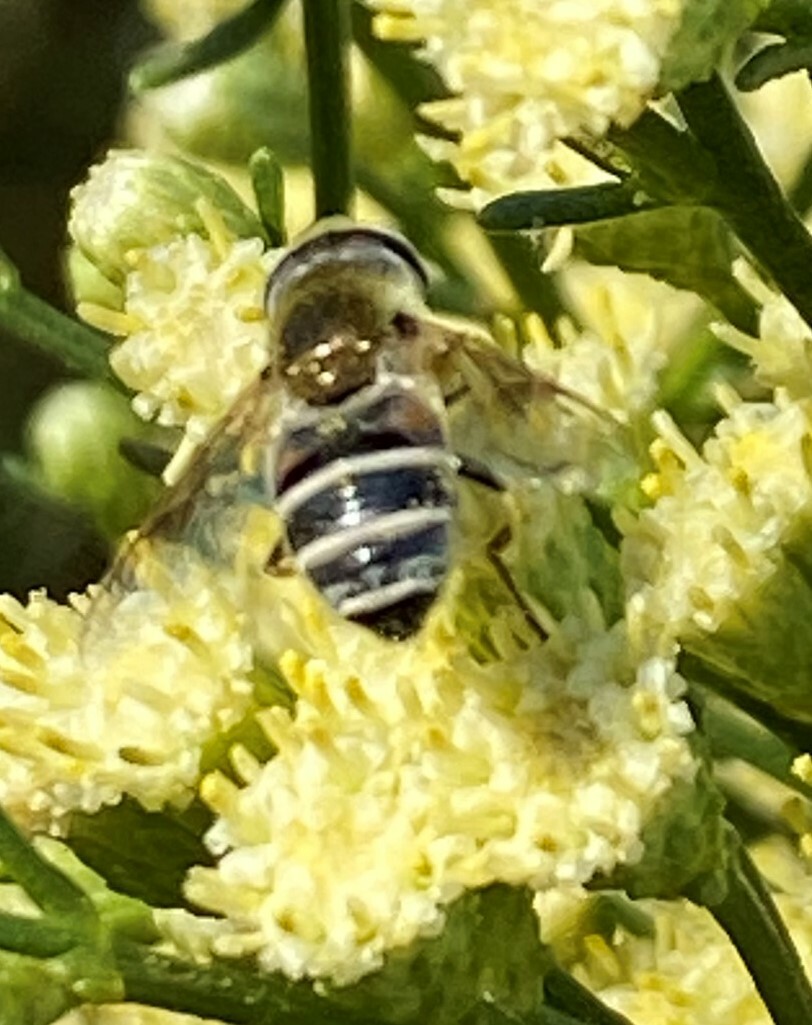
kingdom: Animalia
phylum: Arthropoda
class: Insecta
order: Diptera
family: Syrphidae
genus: Eristalis
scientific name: Eristalis stipator
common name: Yellow-shouldered drone fly
